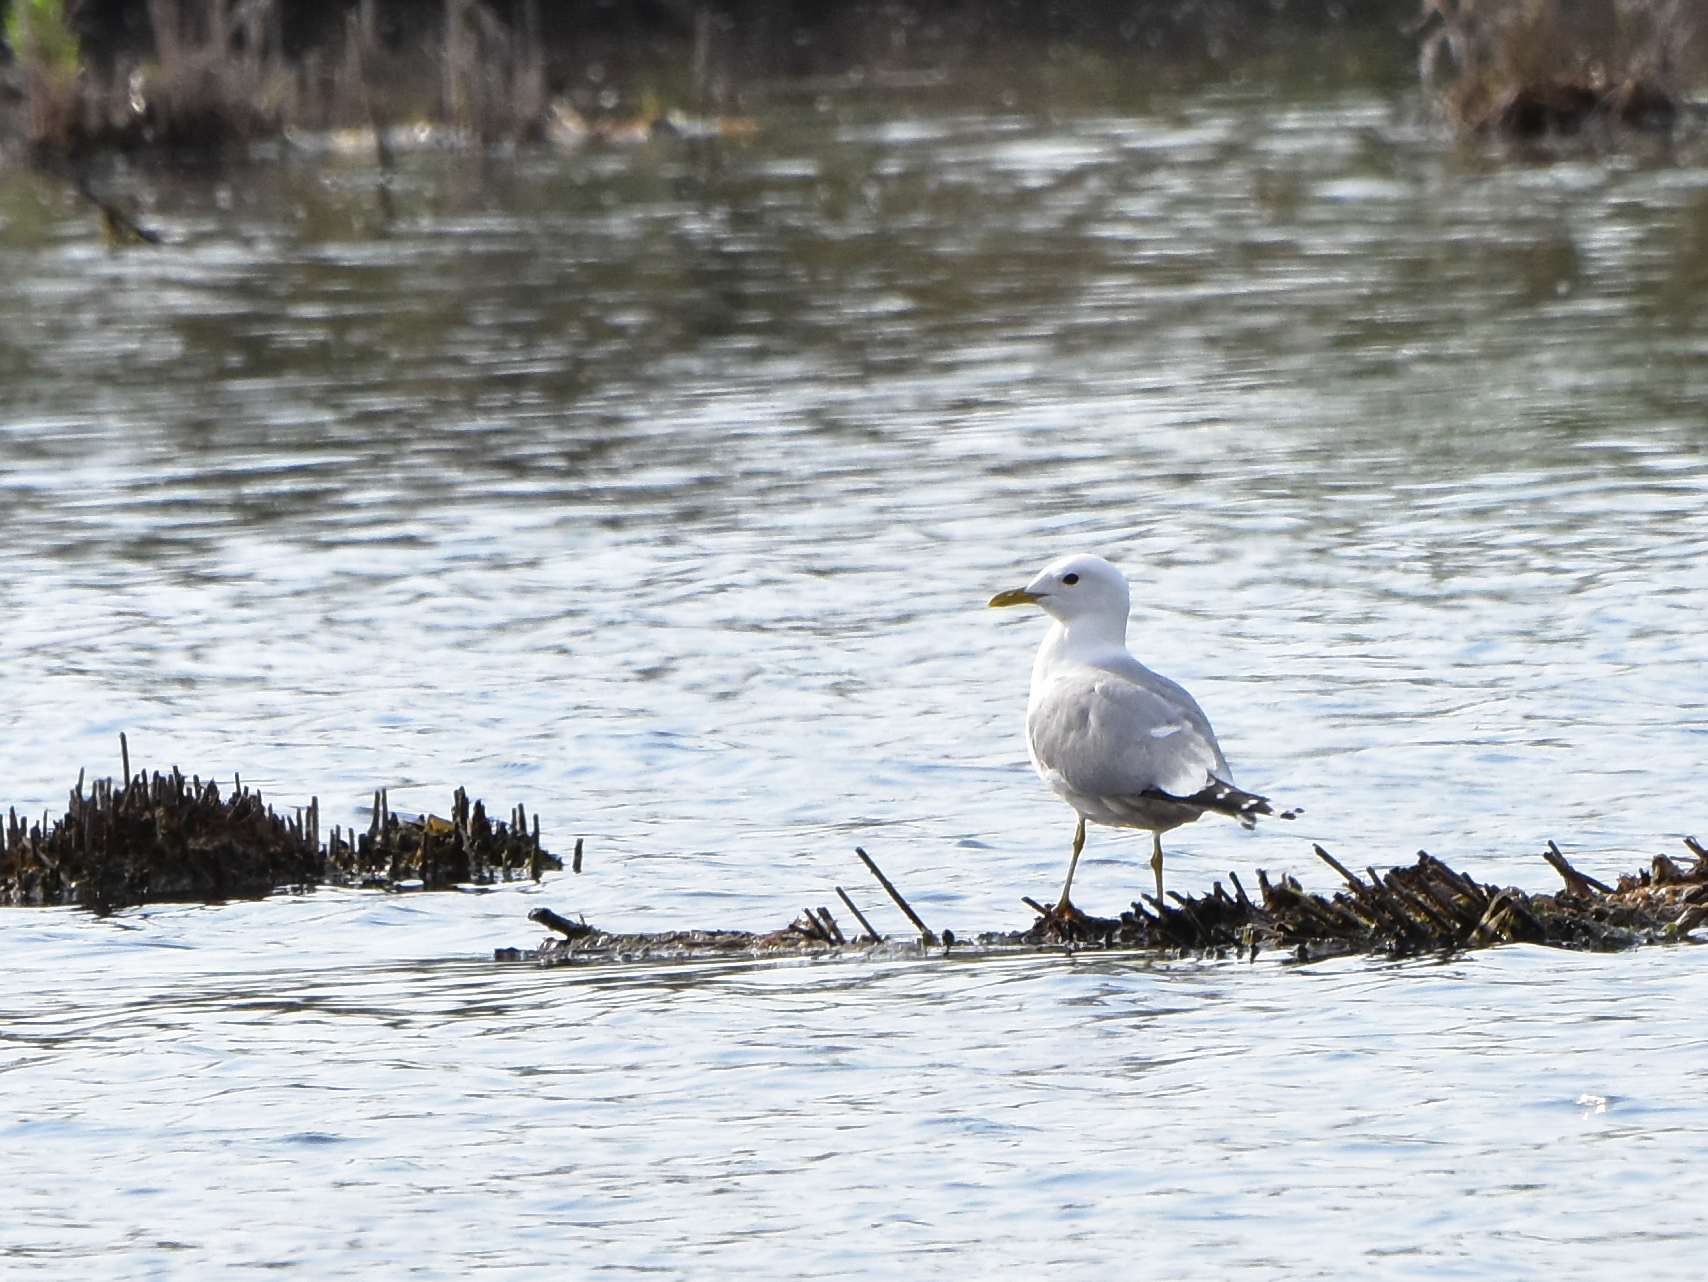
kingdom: Animalia
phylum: Chordata
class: Aves
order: Charadriiformes
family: Laridae
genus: Larus
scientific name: Larus canus
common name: Mew gull
